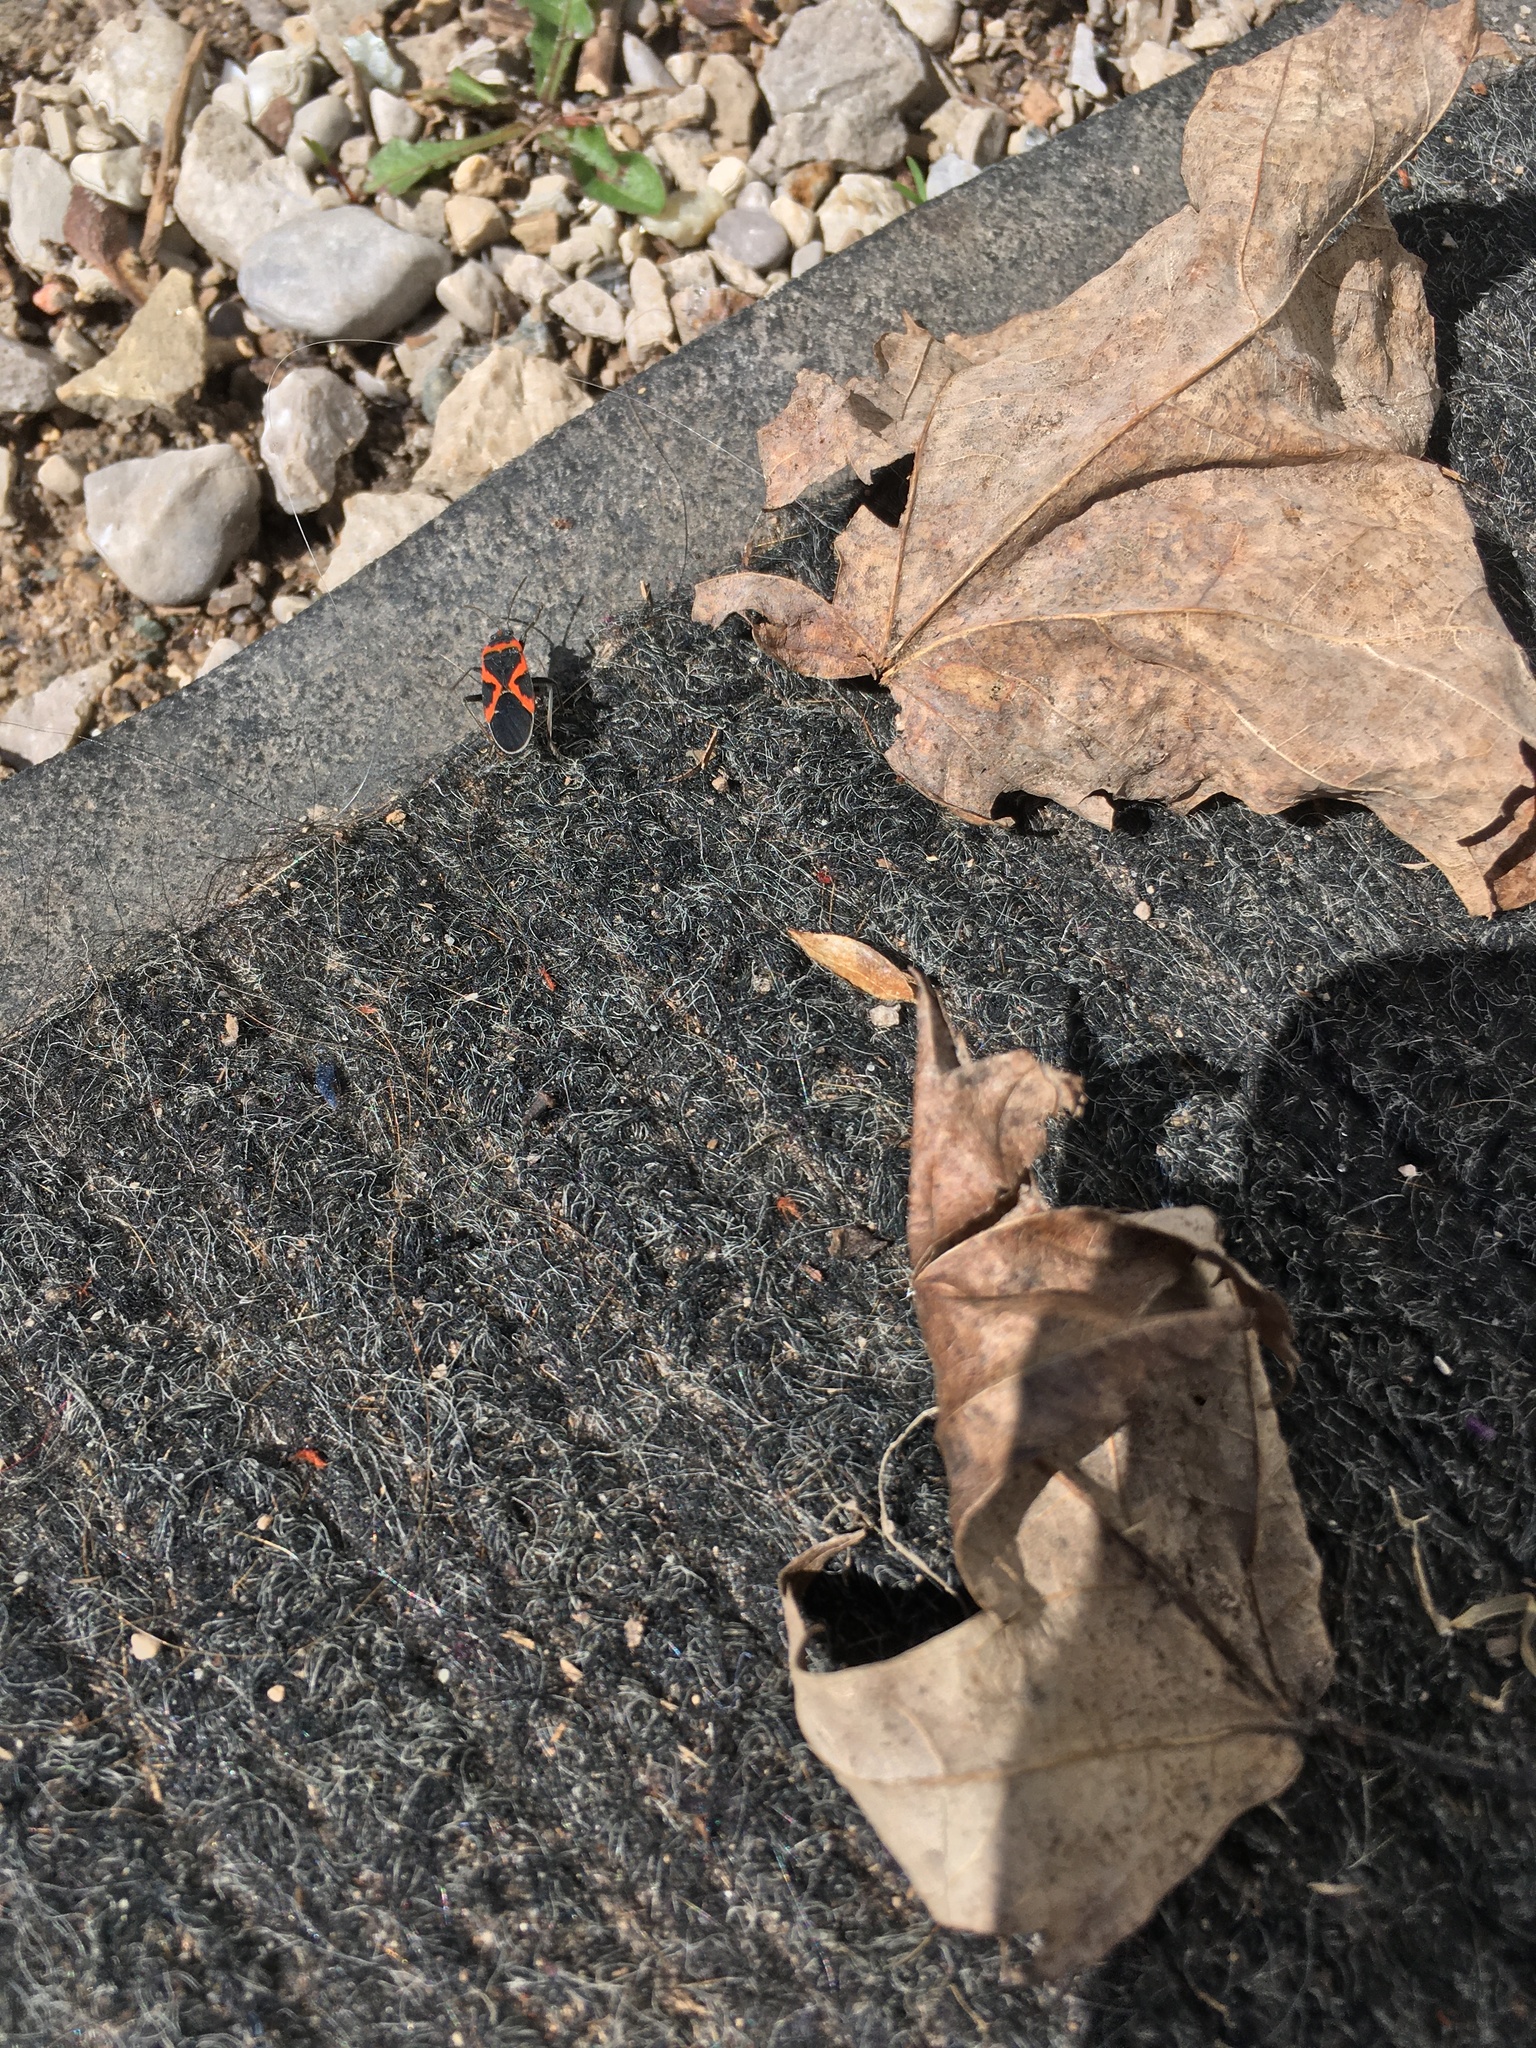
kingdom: Animalia
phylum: Arthropoda
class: Insecta
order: Hemiptera
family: Lygaeidae
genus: Lygaeus
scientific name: Lygaeus kalmii
